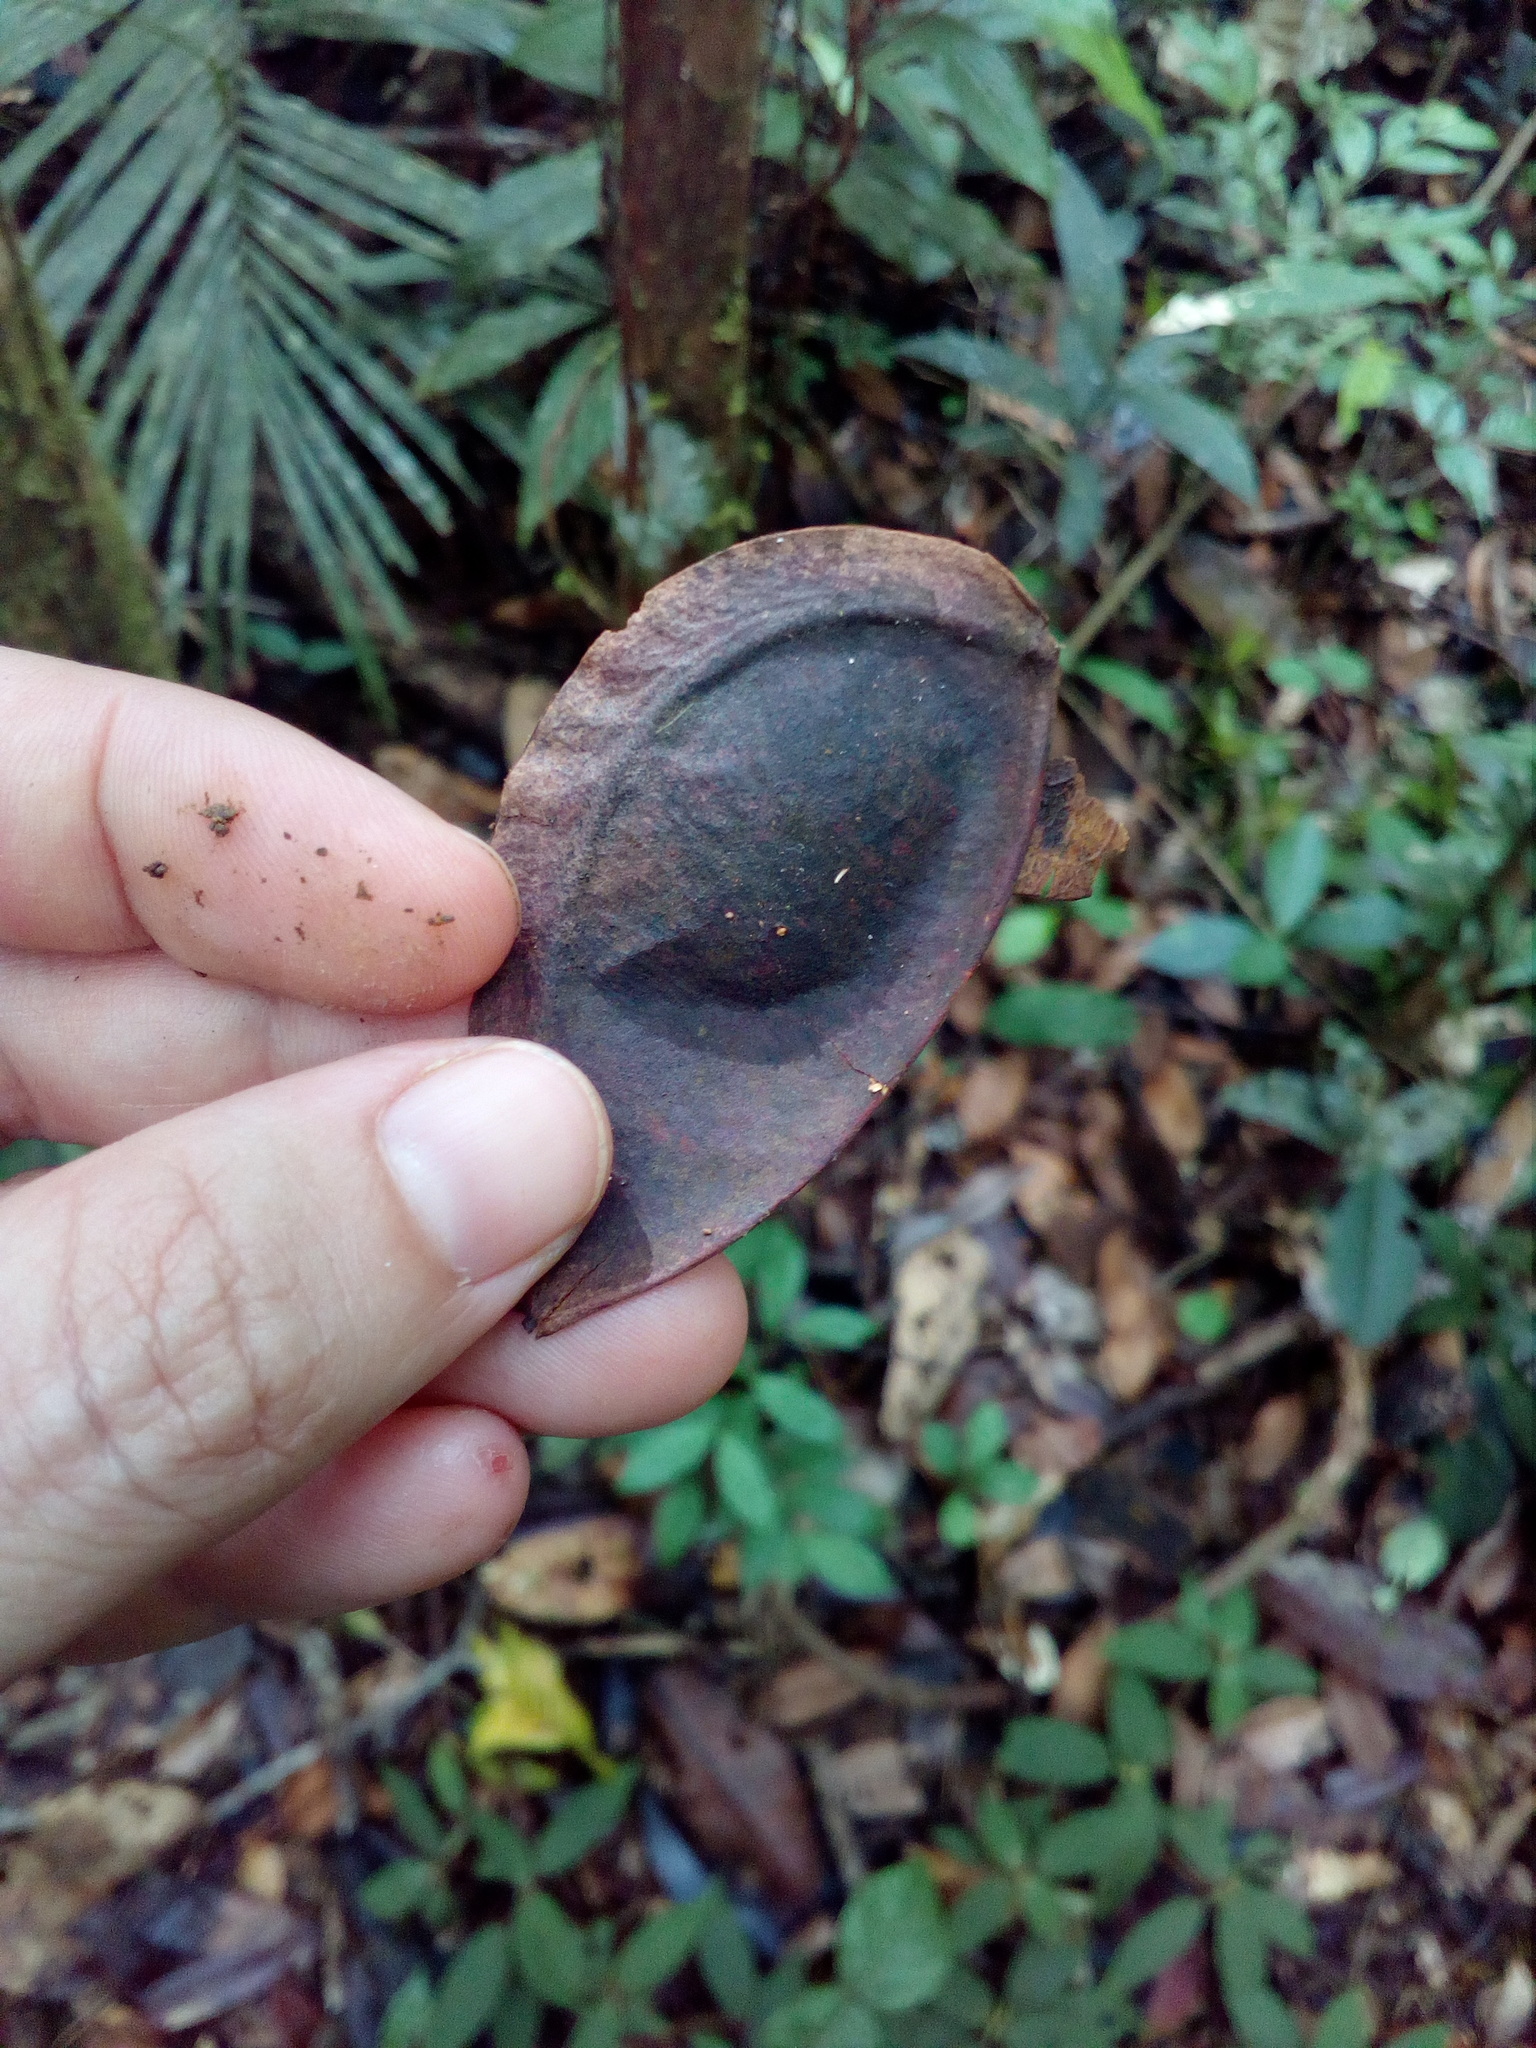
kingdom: Plantae
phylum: Tracheophyta
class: Magnoliopsida
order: Fabales
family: Fabaceae
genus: Dicorynia
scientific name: Dicorynia guianensis
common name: Basralocus
